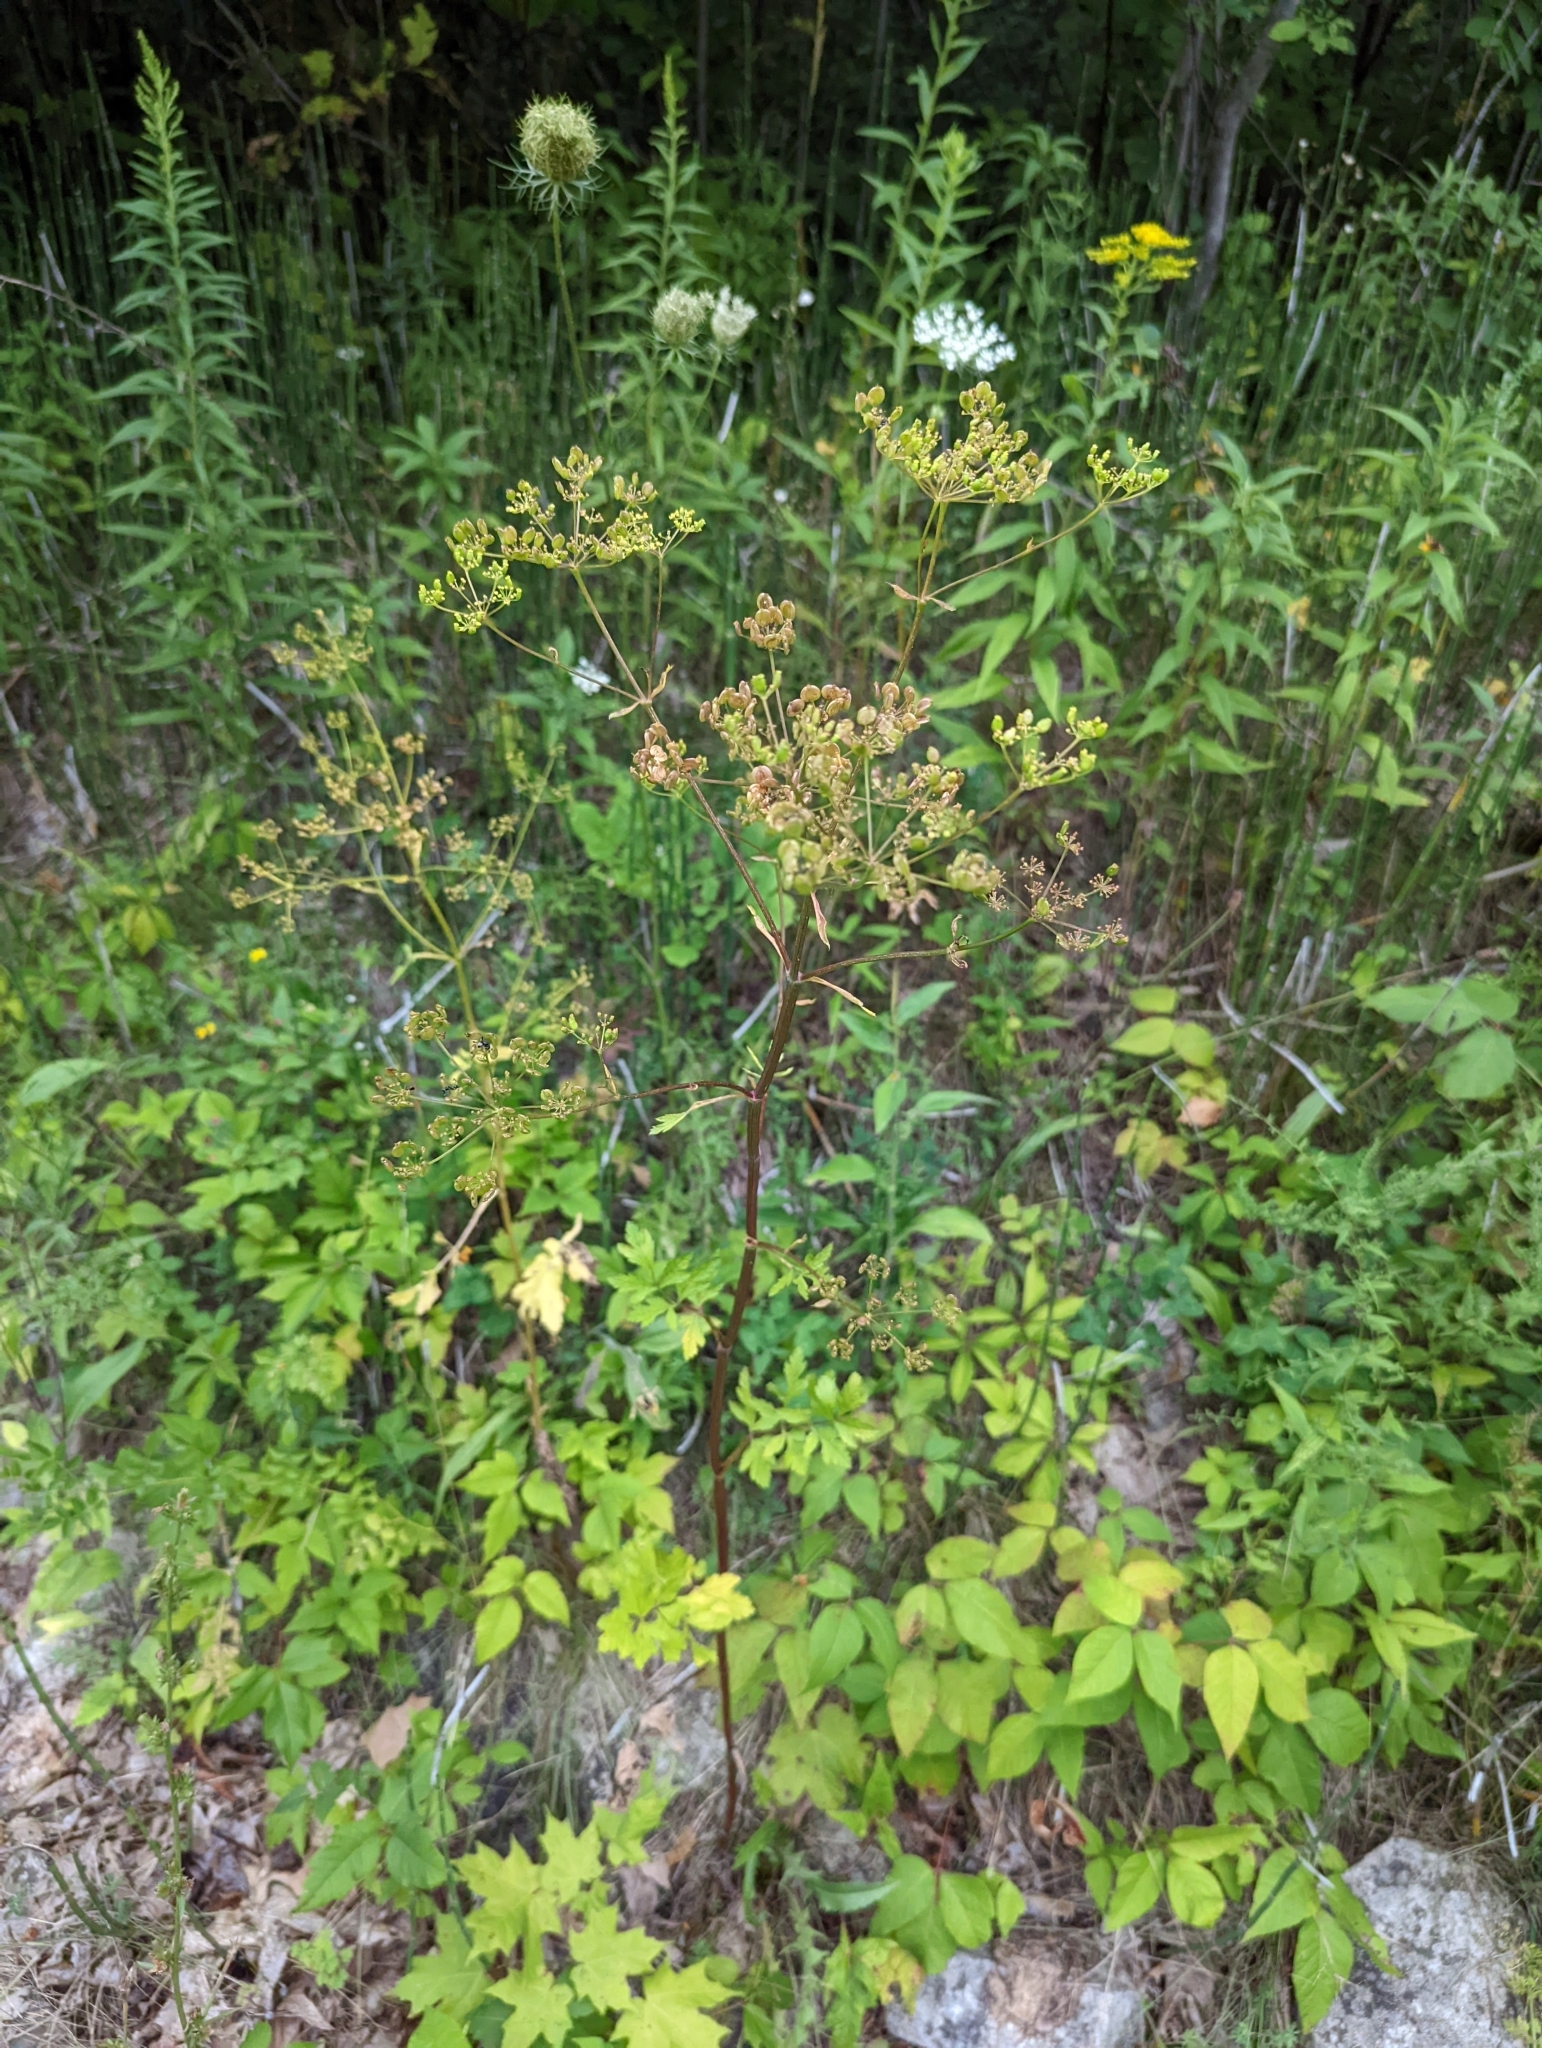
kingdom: Plantae
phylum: Tracheophyta
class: Magnoliopsida
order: Apiales
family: Apiaceae
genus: Pastinaca
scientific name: Pastinaca sativa
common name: Wild parsnip
